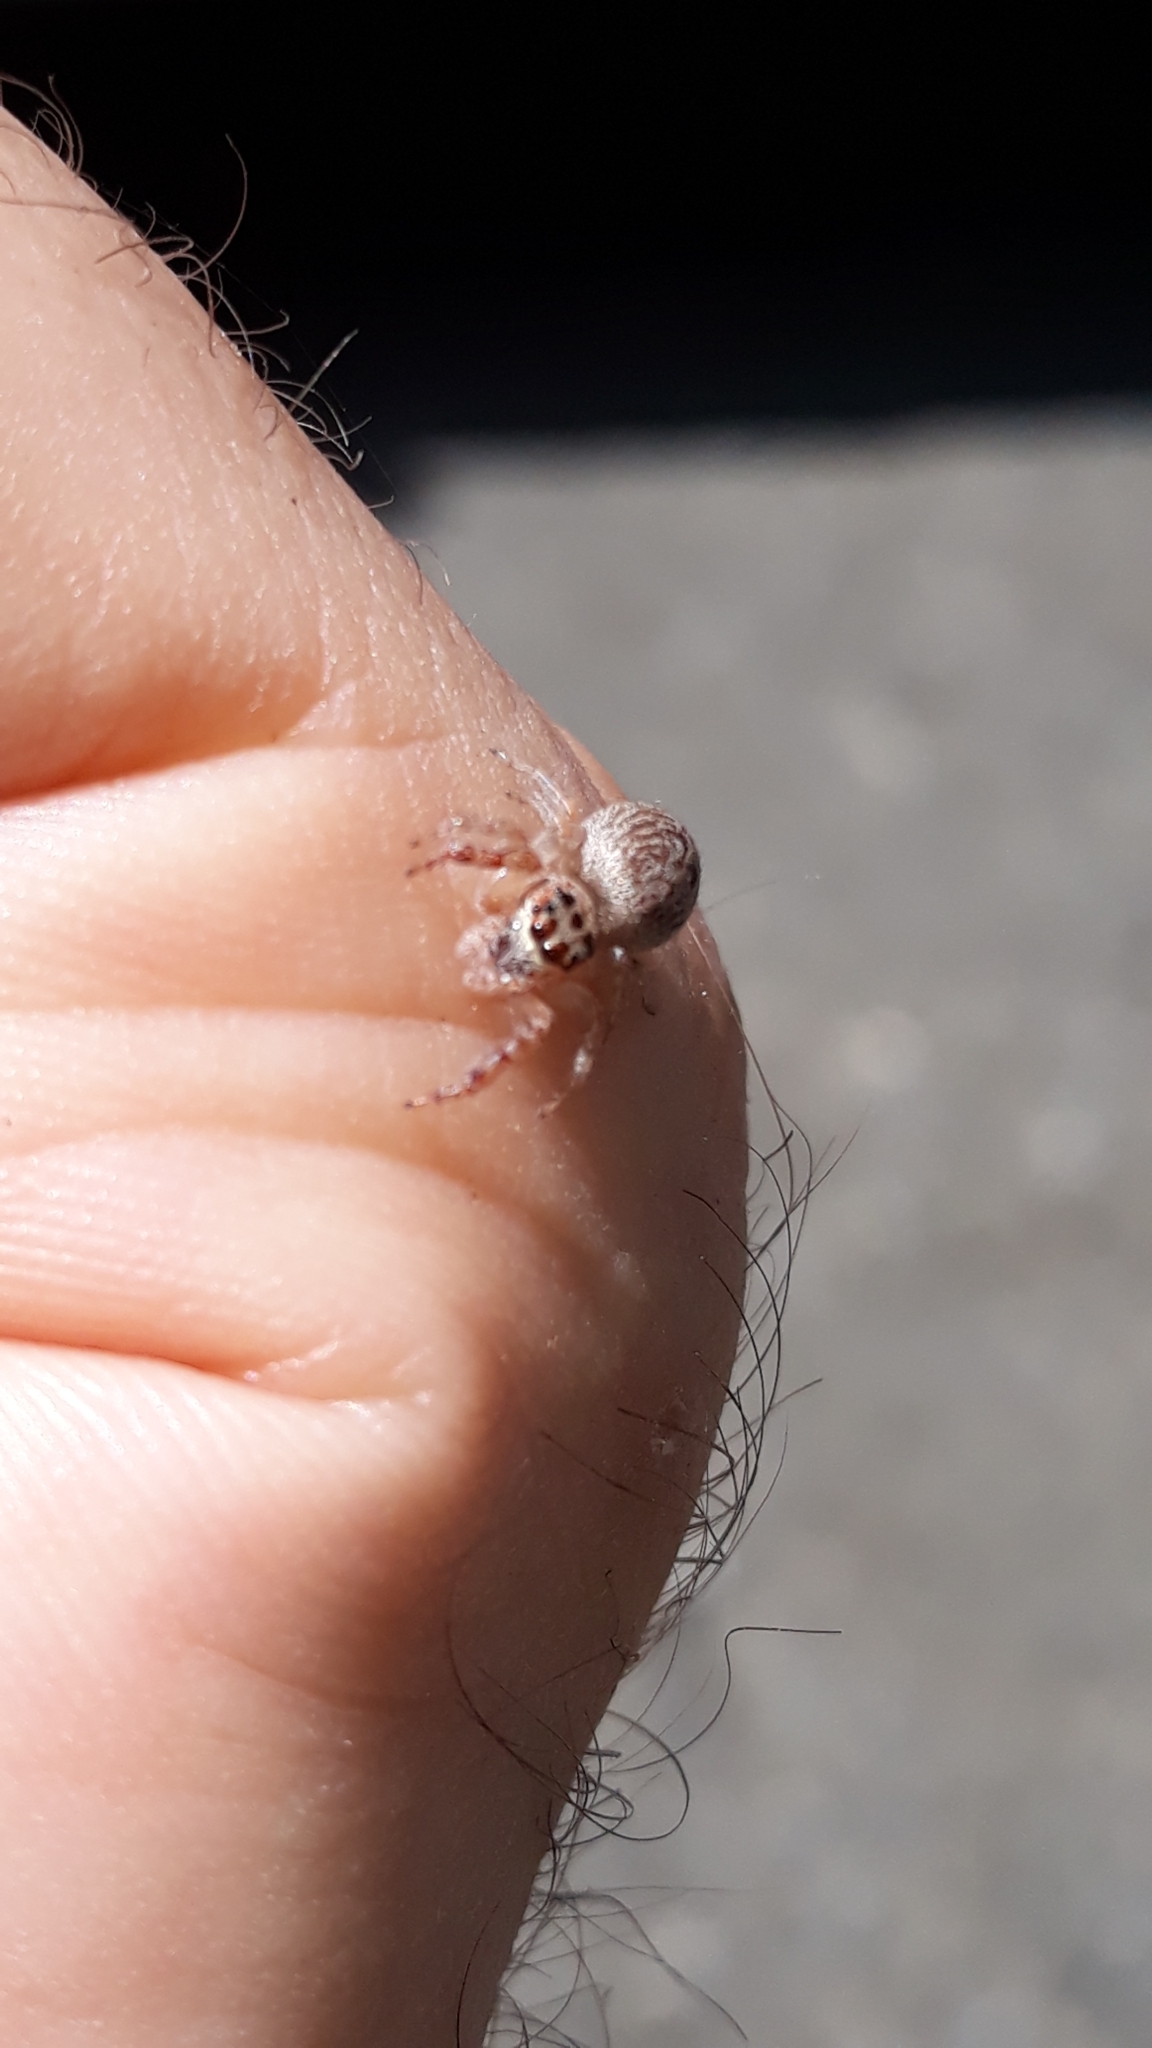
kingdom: Animalia
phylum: Arthropoda
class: Arachnida
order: Araneae
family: Salticidae
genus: Opisthoncus
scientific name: Opisthoncus polyphemus
